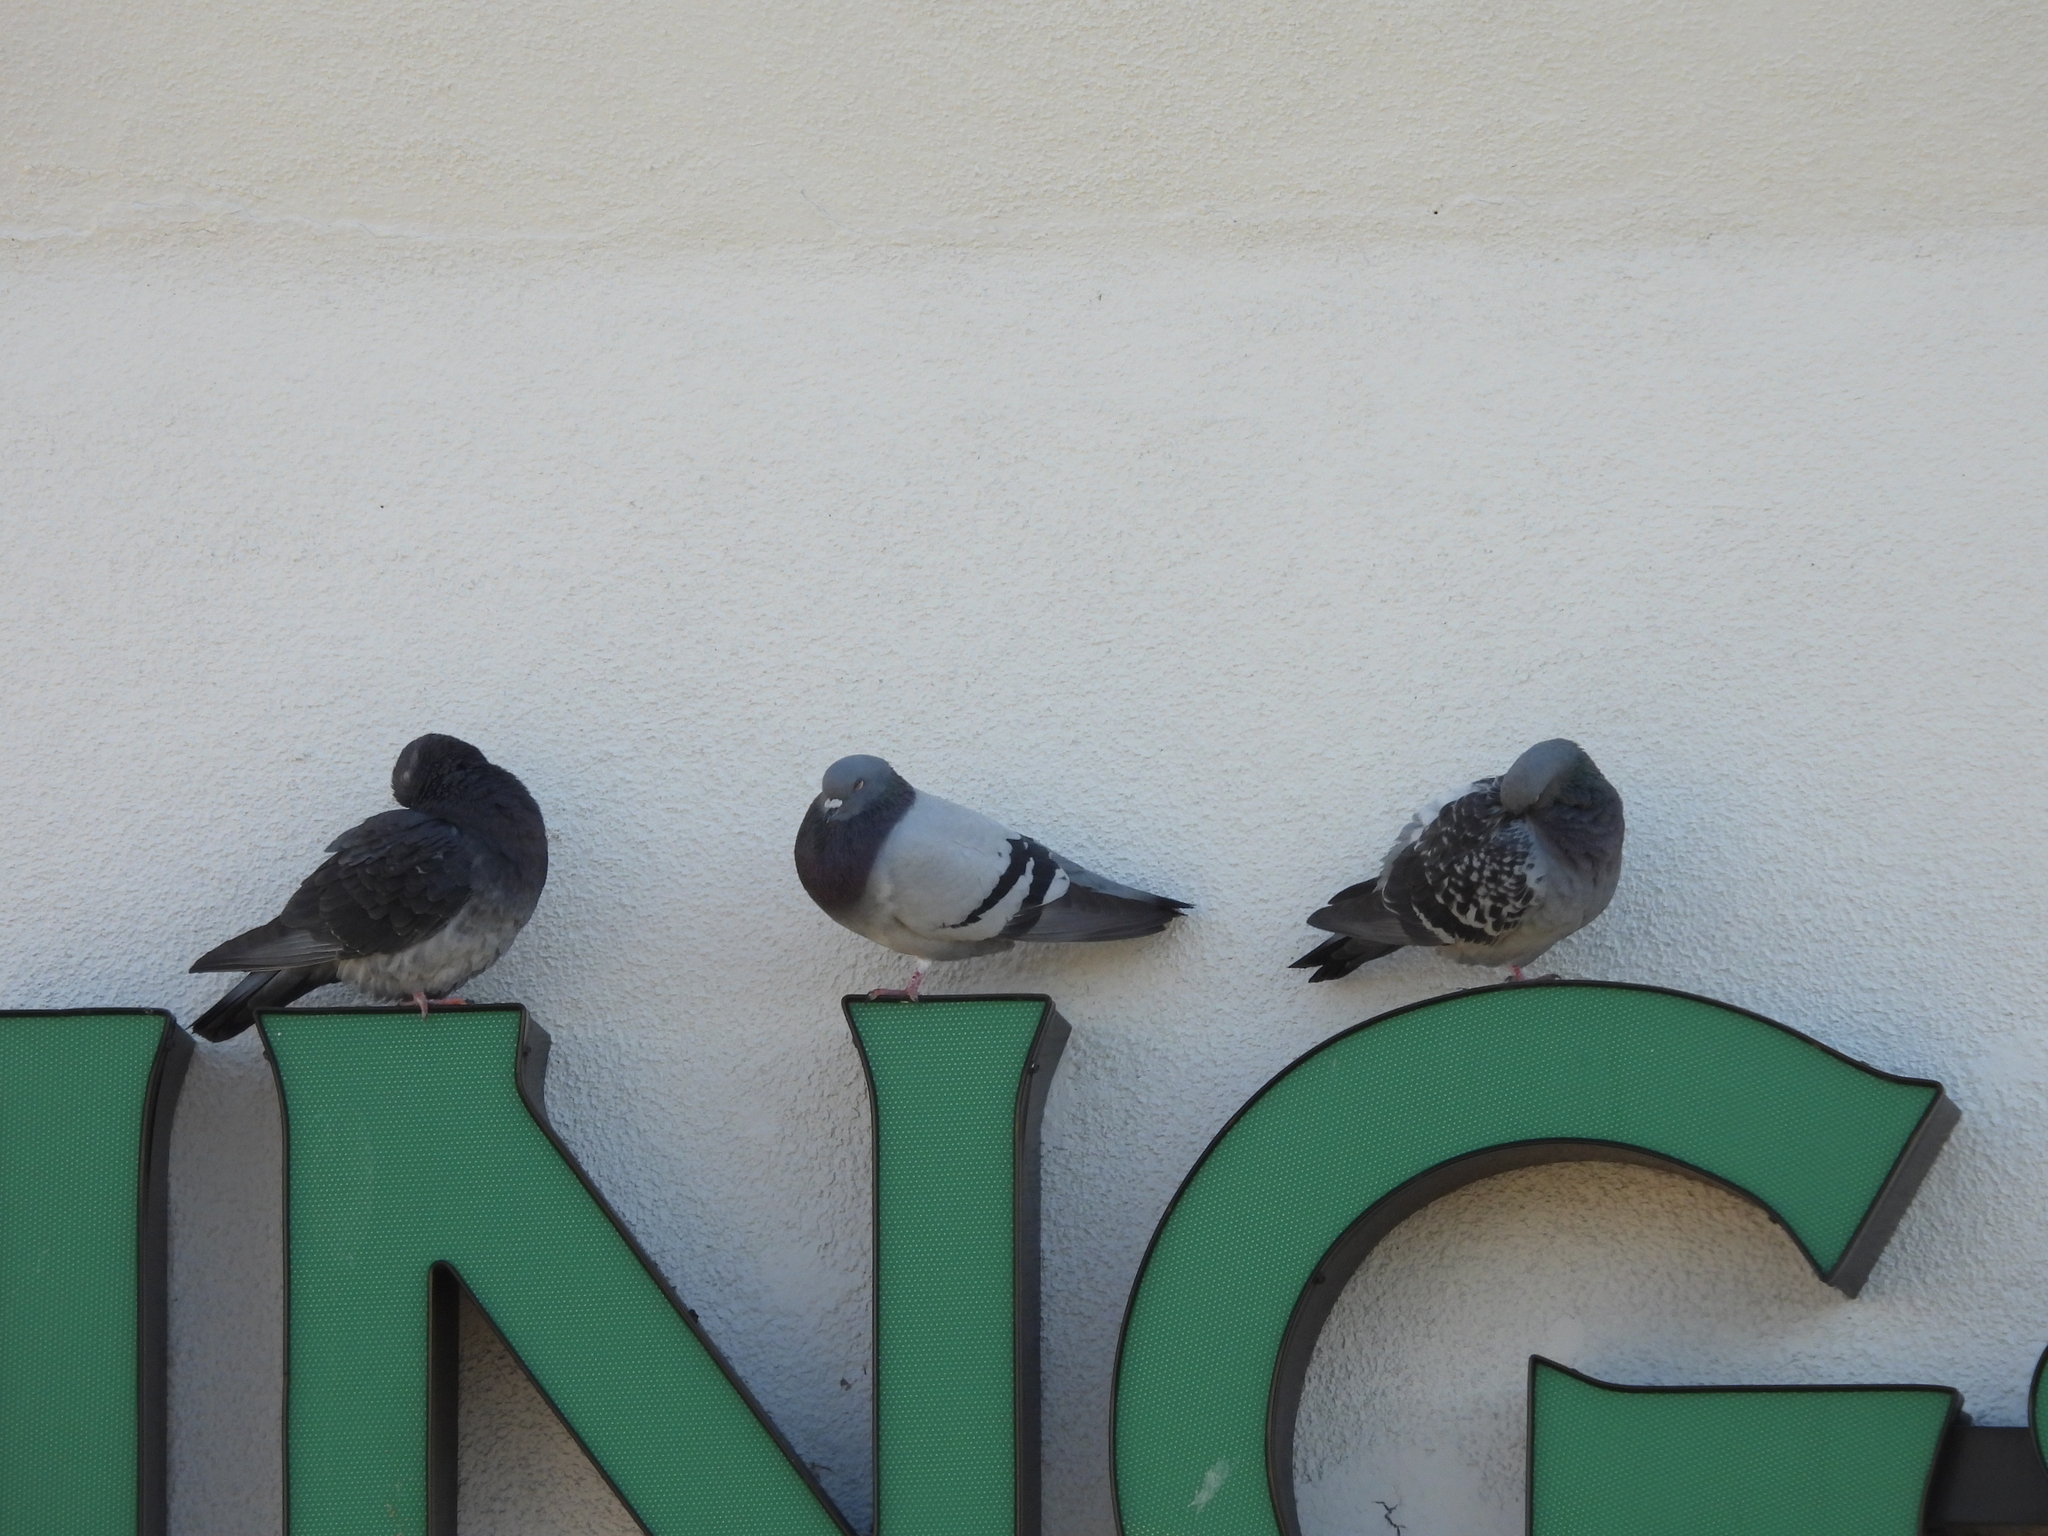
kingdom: Animalia
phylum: Chordata
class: Aves
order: Columbiformes
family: Columbidae
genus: Columba
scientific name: Columba livia
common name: Rock pigeon
